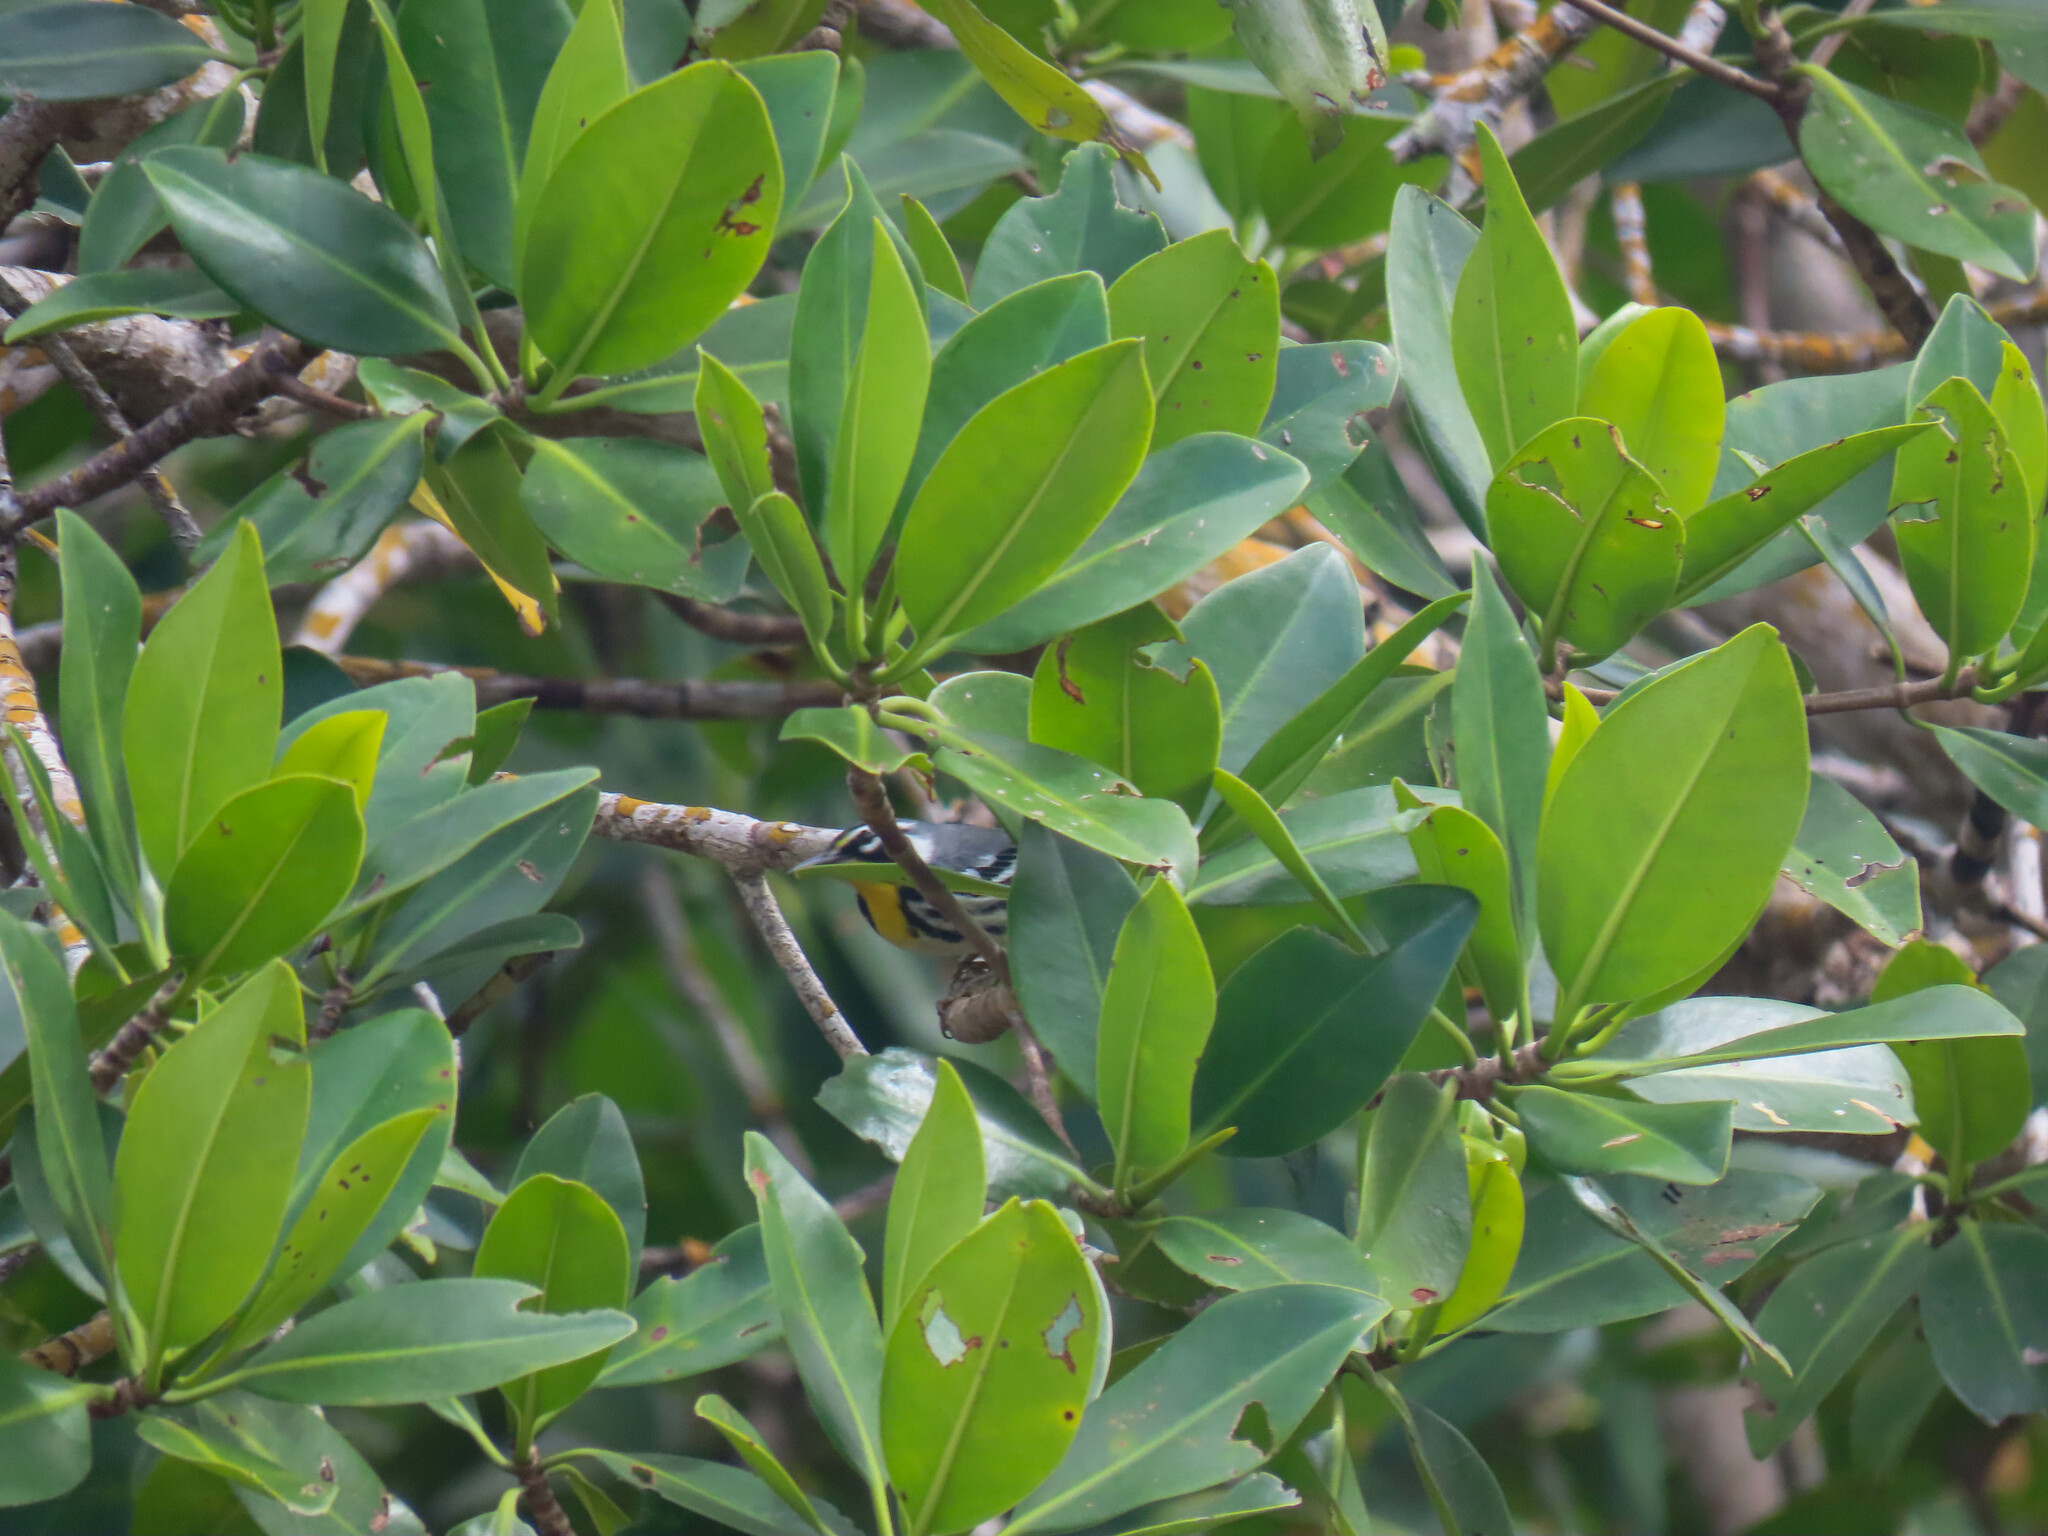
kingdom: Animalia
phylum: Chordata
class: Aves
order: Passeriformes
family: Parulidae
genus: Setophaga
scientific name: Setophaga dominica
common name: Yellow-throated warbler
